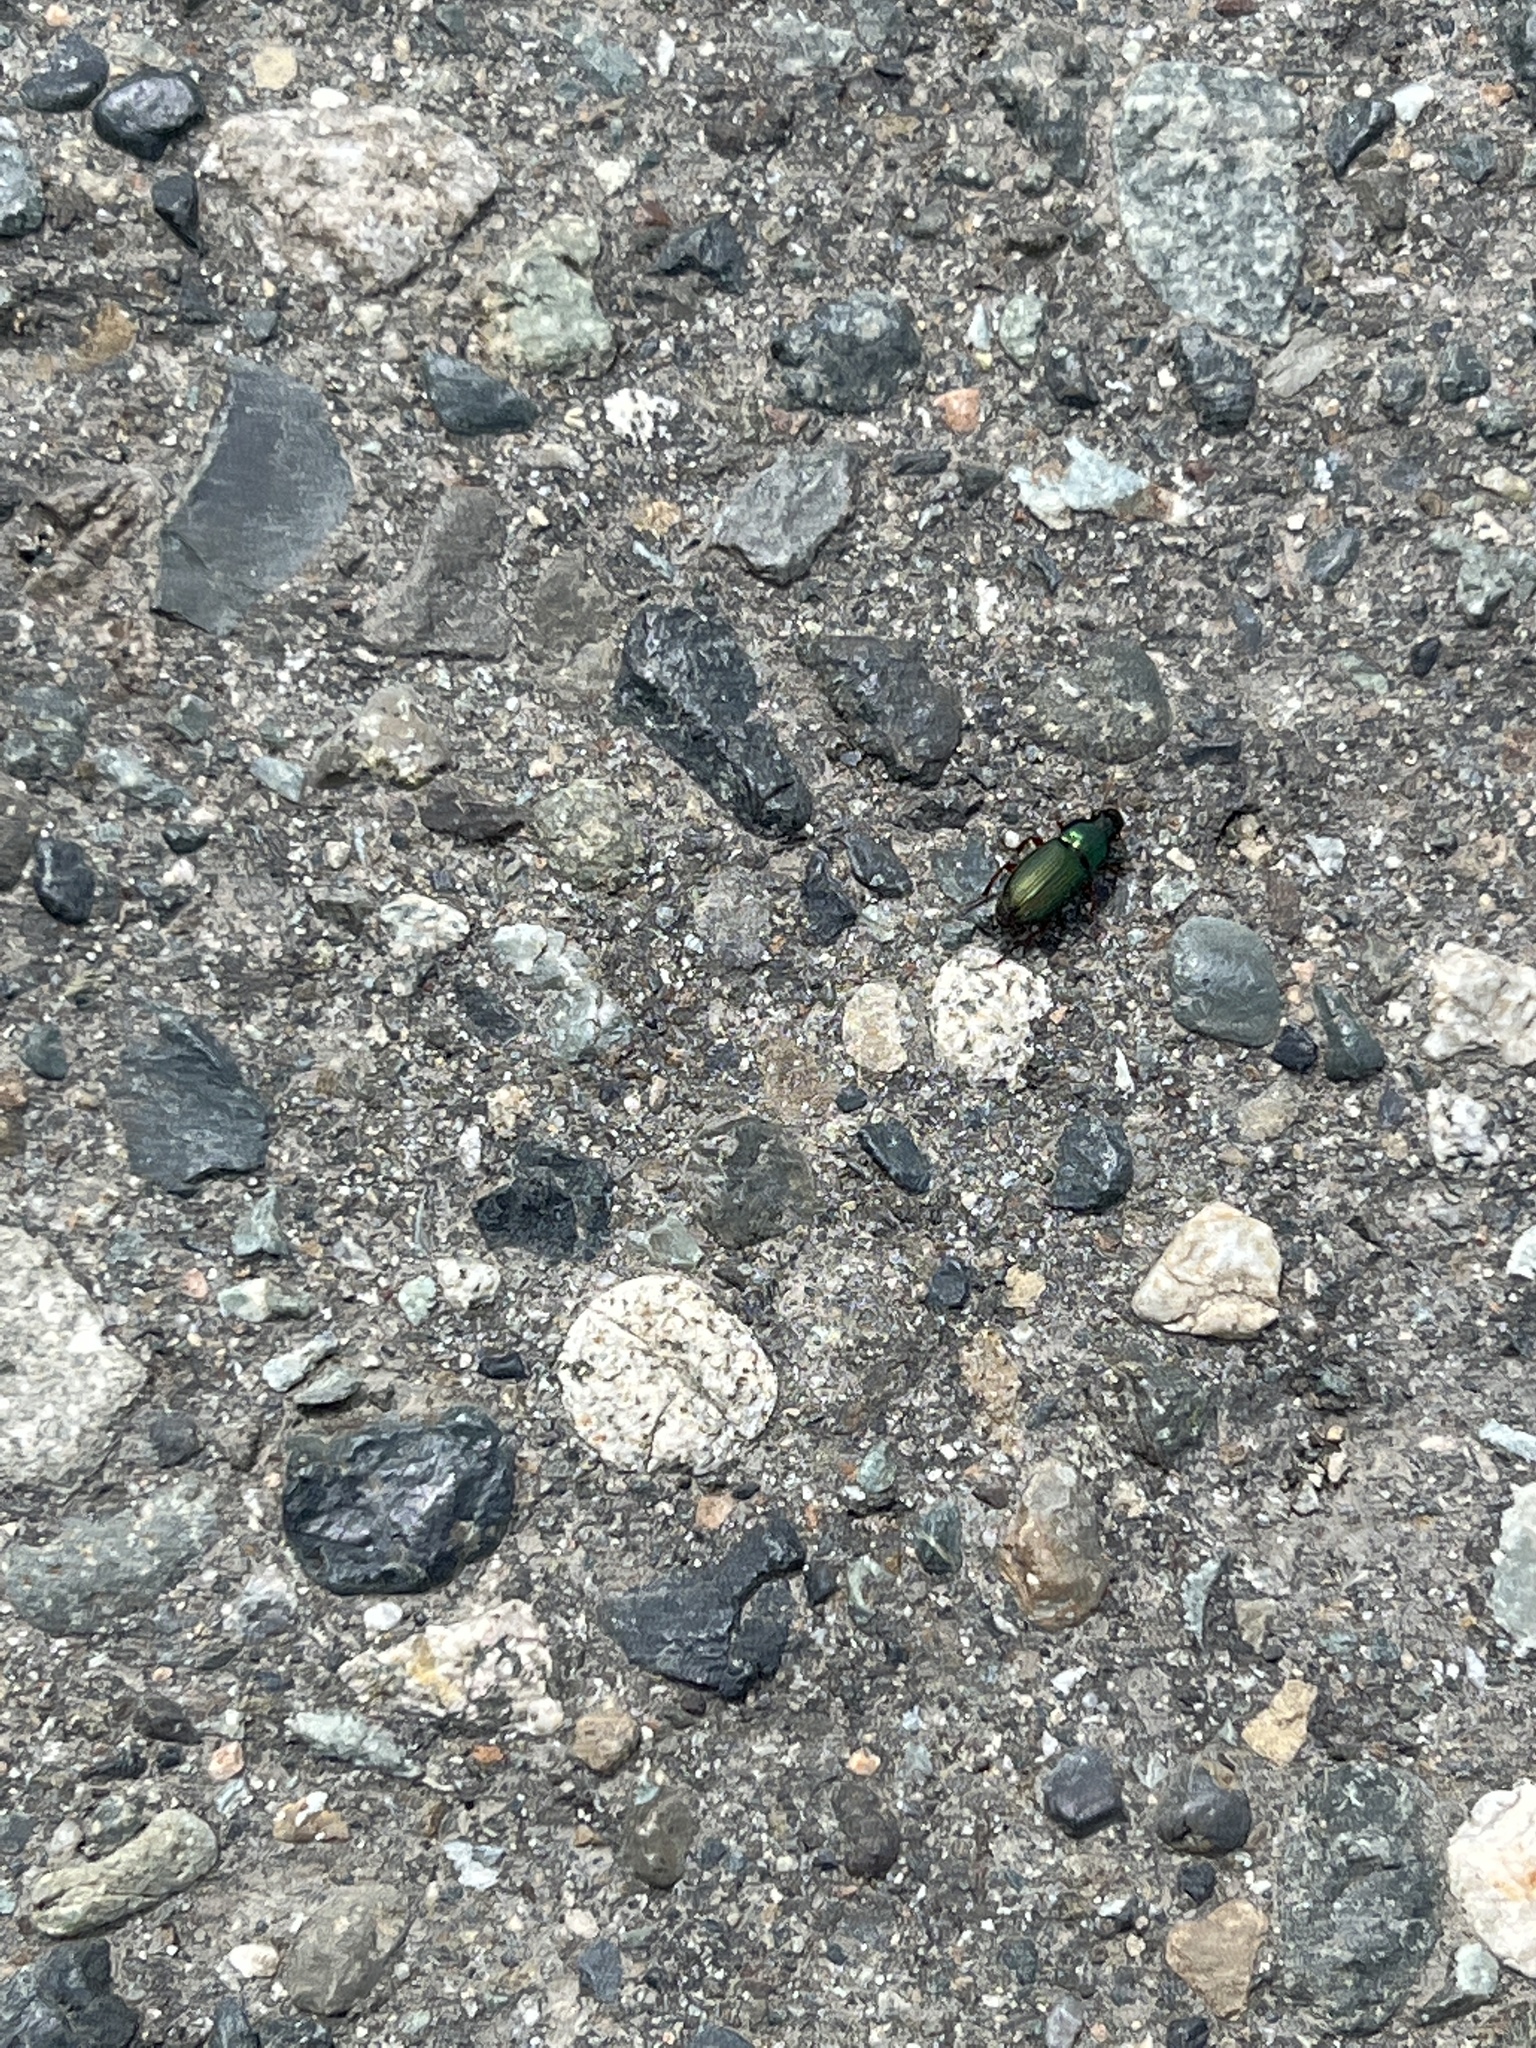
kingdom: Animalia
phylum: Arthropoda
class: Insecta
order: Coleoptera
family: Carabidae
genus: Harpalus
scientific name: Harpalus affinis
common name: Polychrome harp ground beetle
